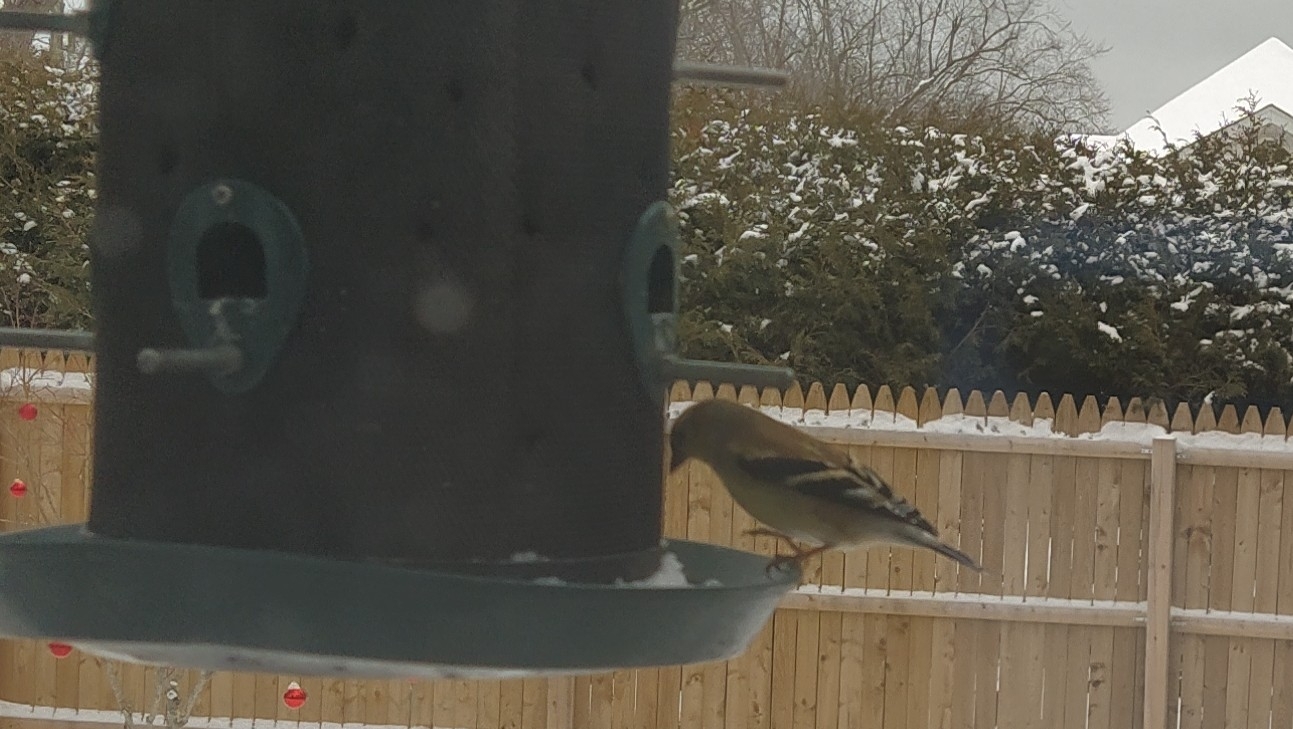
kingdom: Animalia
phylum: Chordata
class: Aves
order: Passeriformes
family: Fringillidae
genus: Spinus
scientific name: Spinus tristis
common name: American goldfinch
